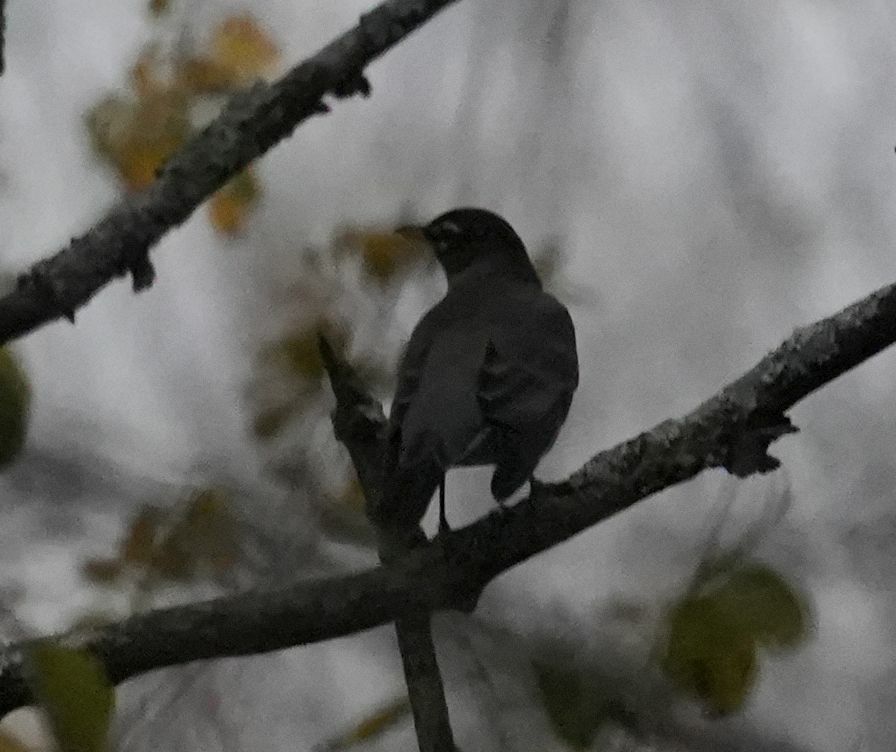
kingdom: Animalia
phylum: Chordata
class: Aves
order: Passeriformes
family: Turdidae
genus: Turdus
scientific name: Turdus migratorius
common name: American robin
